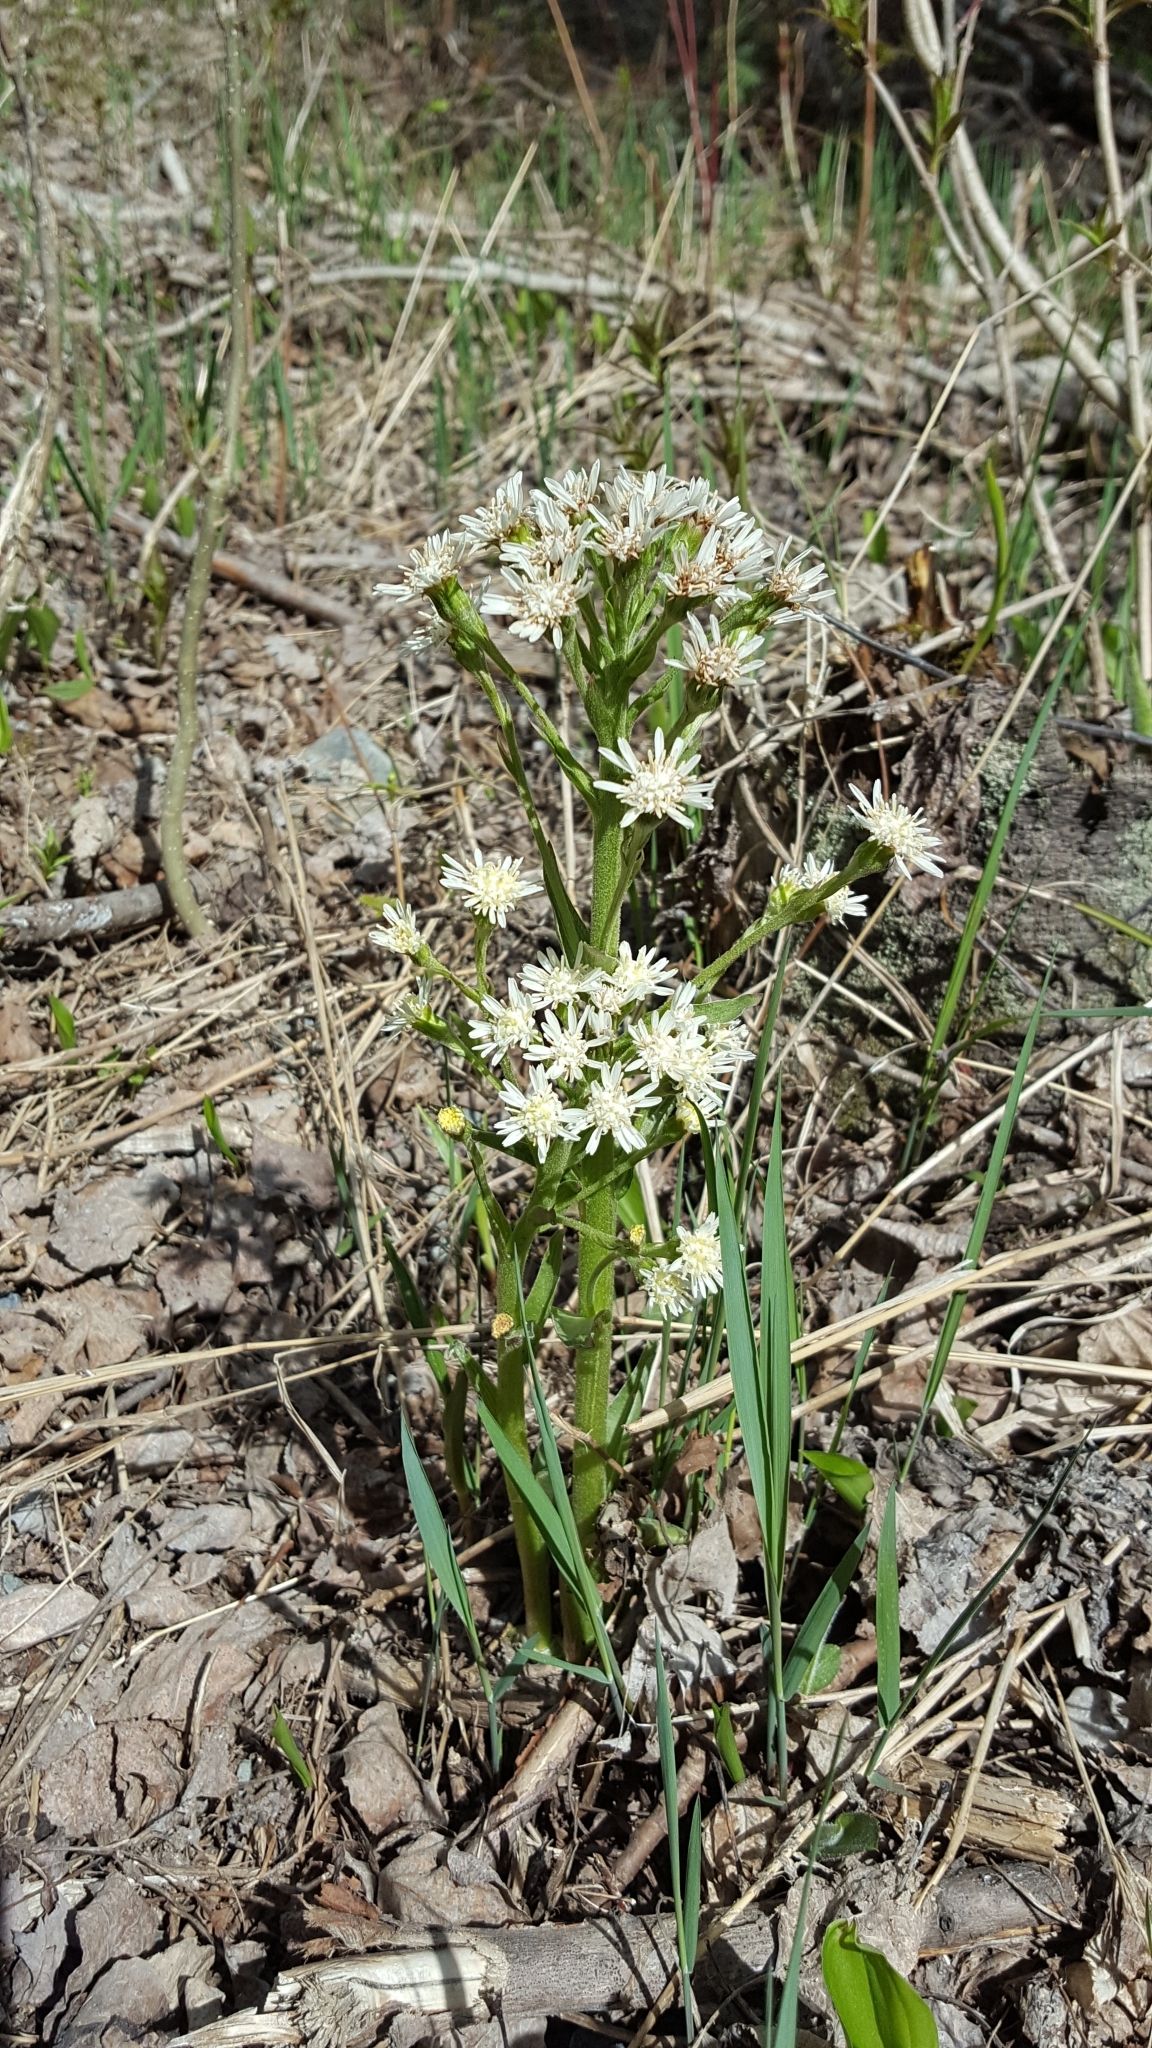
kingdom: Plantae
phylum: Tracheophyta
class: Magnoliopsida
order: Asterales
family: Asteraceae
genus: Petasites
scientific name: Petasites frigidus
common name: Arctic butterbur
